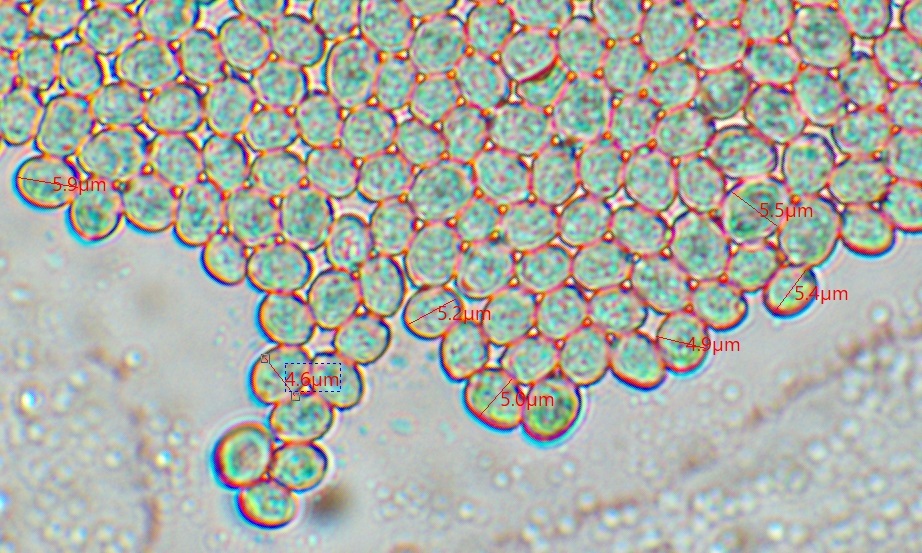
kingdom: Fungi
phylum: Basidiomycota
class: Agaricomycetes
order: Agaricales
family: Pluteaceae
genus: Pluteus
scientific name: Pluteus cervinus
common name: Deer shield
